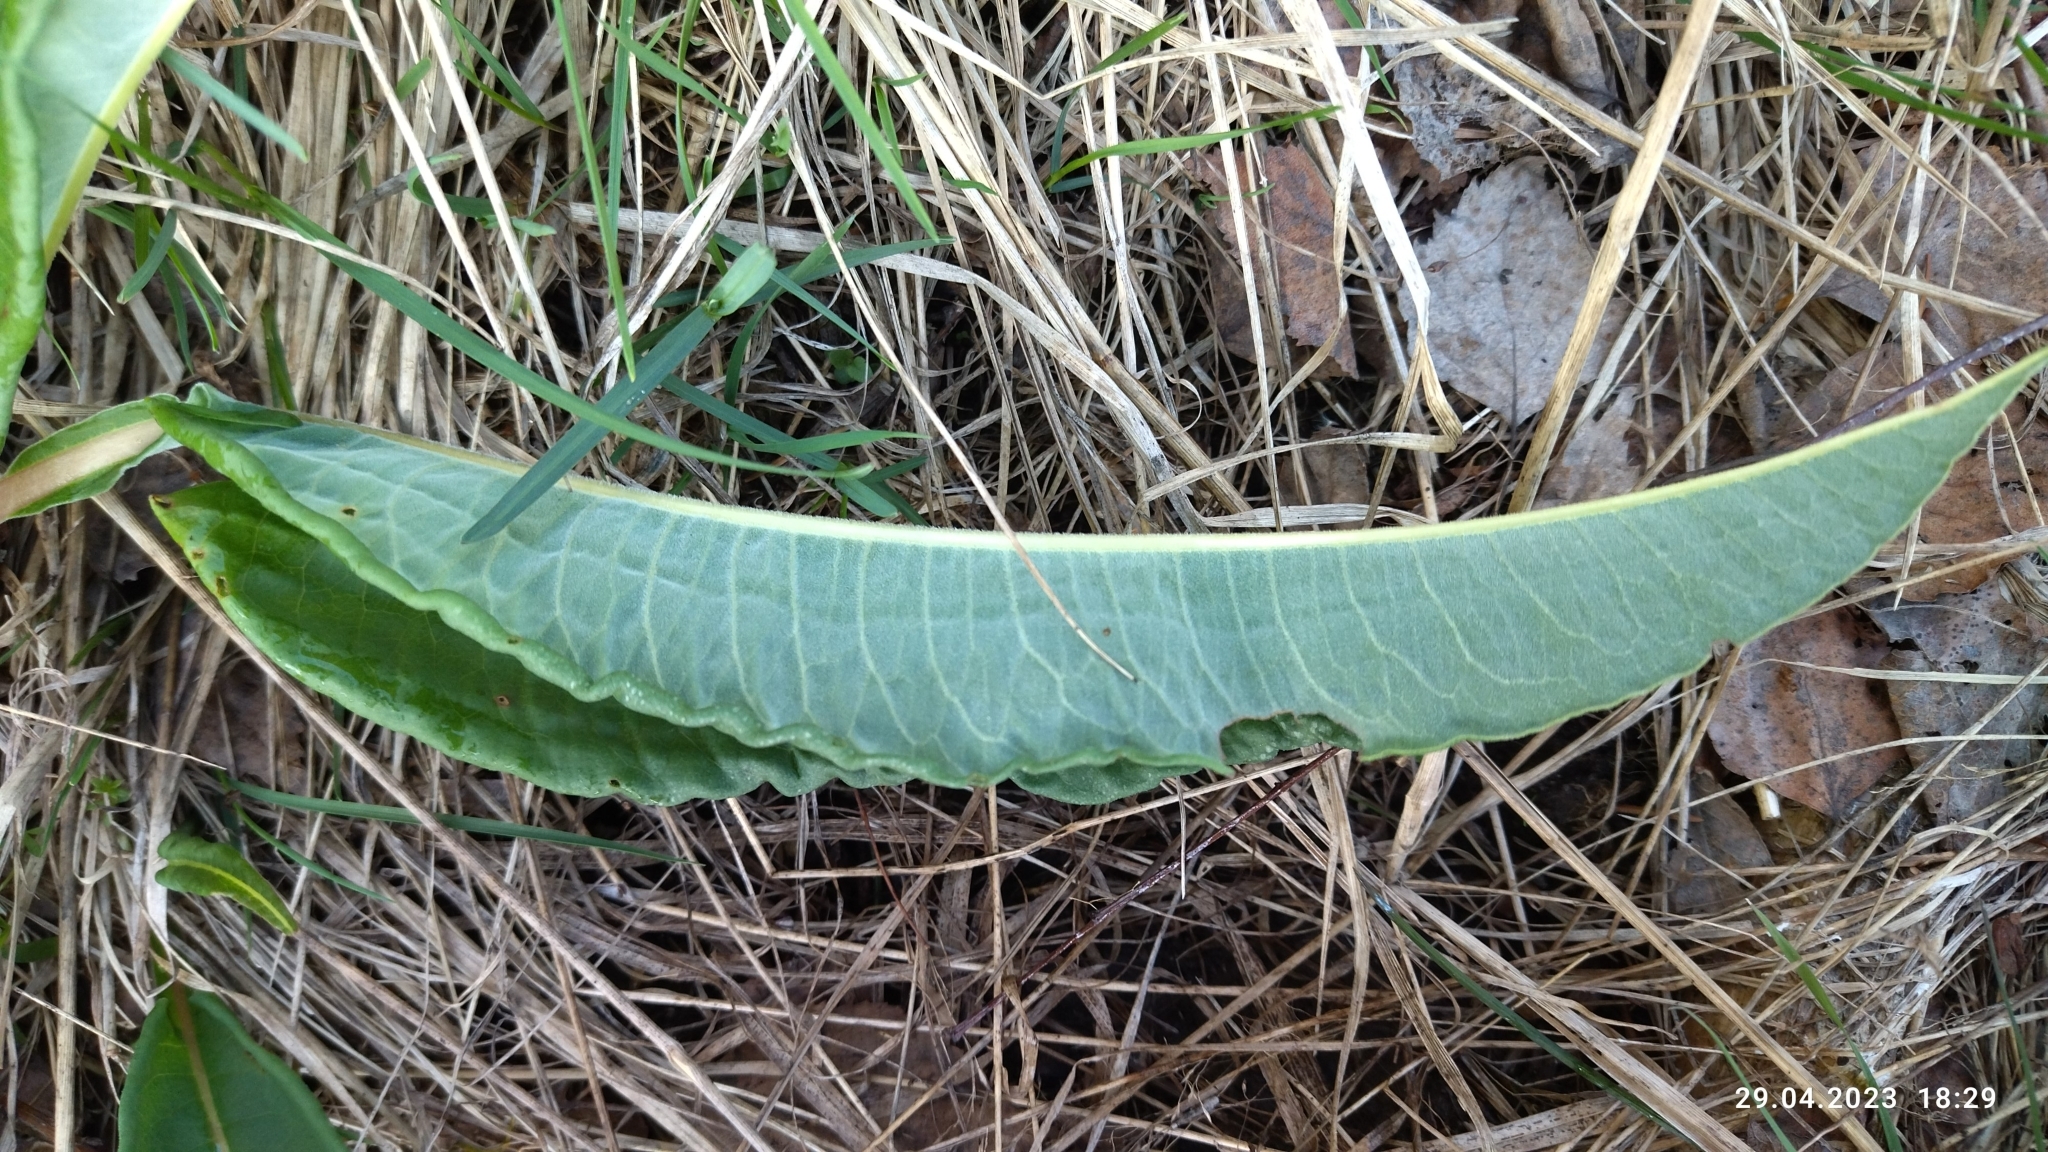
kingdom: Plantae
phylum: Tracheophyta
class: Magnoliopsida
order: Caryophyllales
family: Polygonaceae
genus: Bistorta
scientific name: Bistorta officinalis
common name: Common bistort
